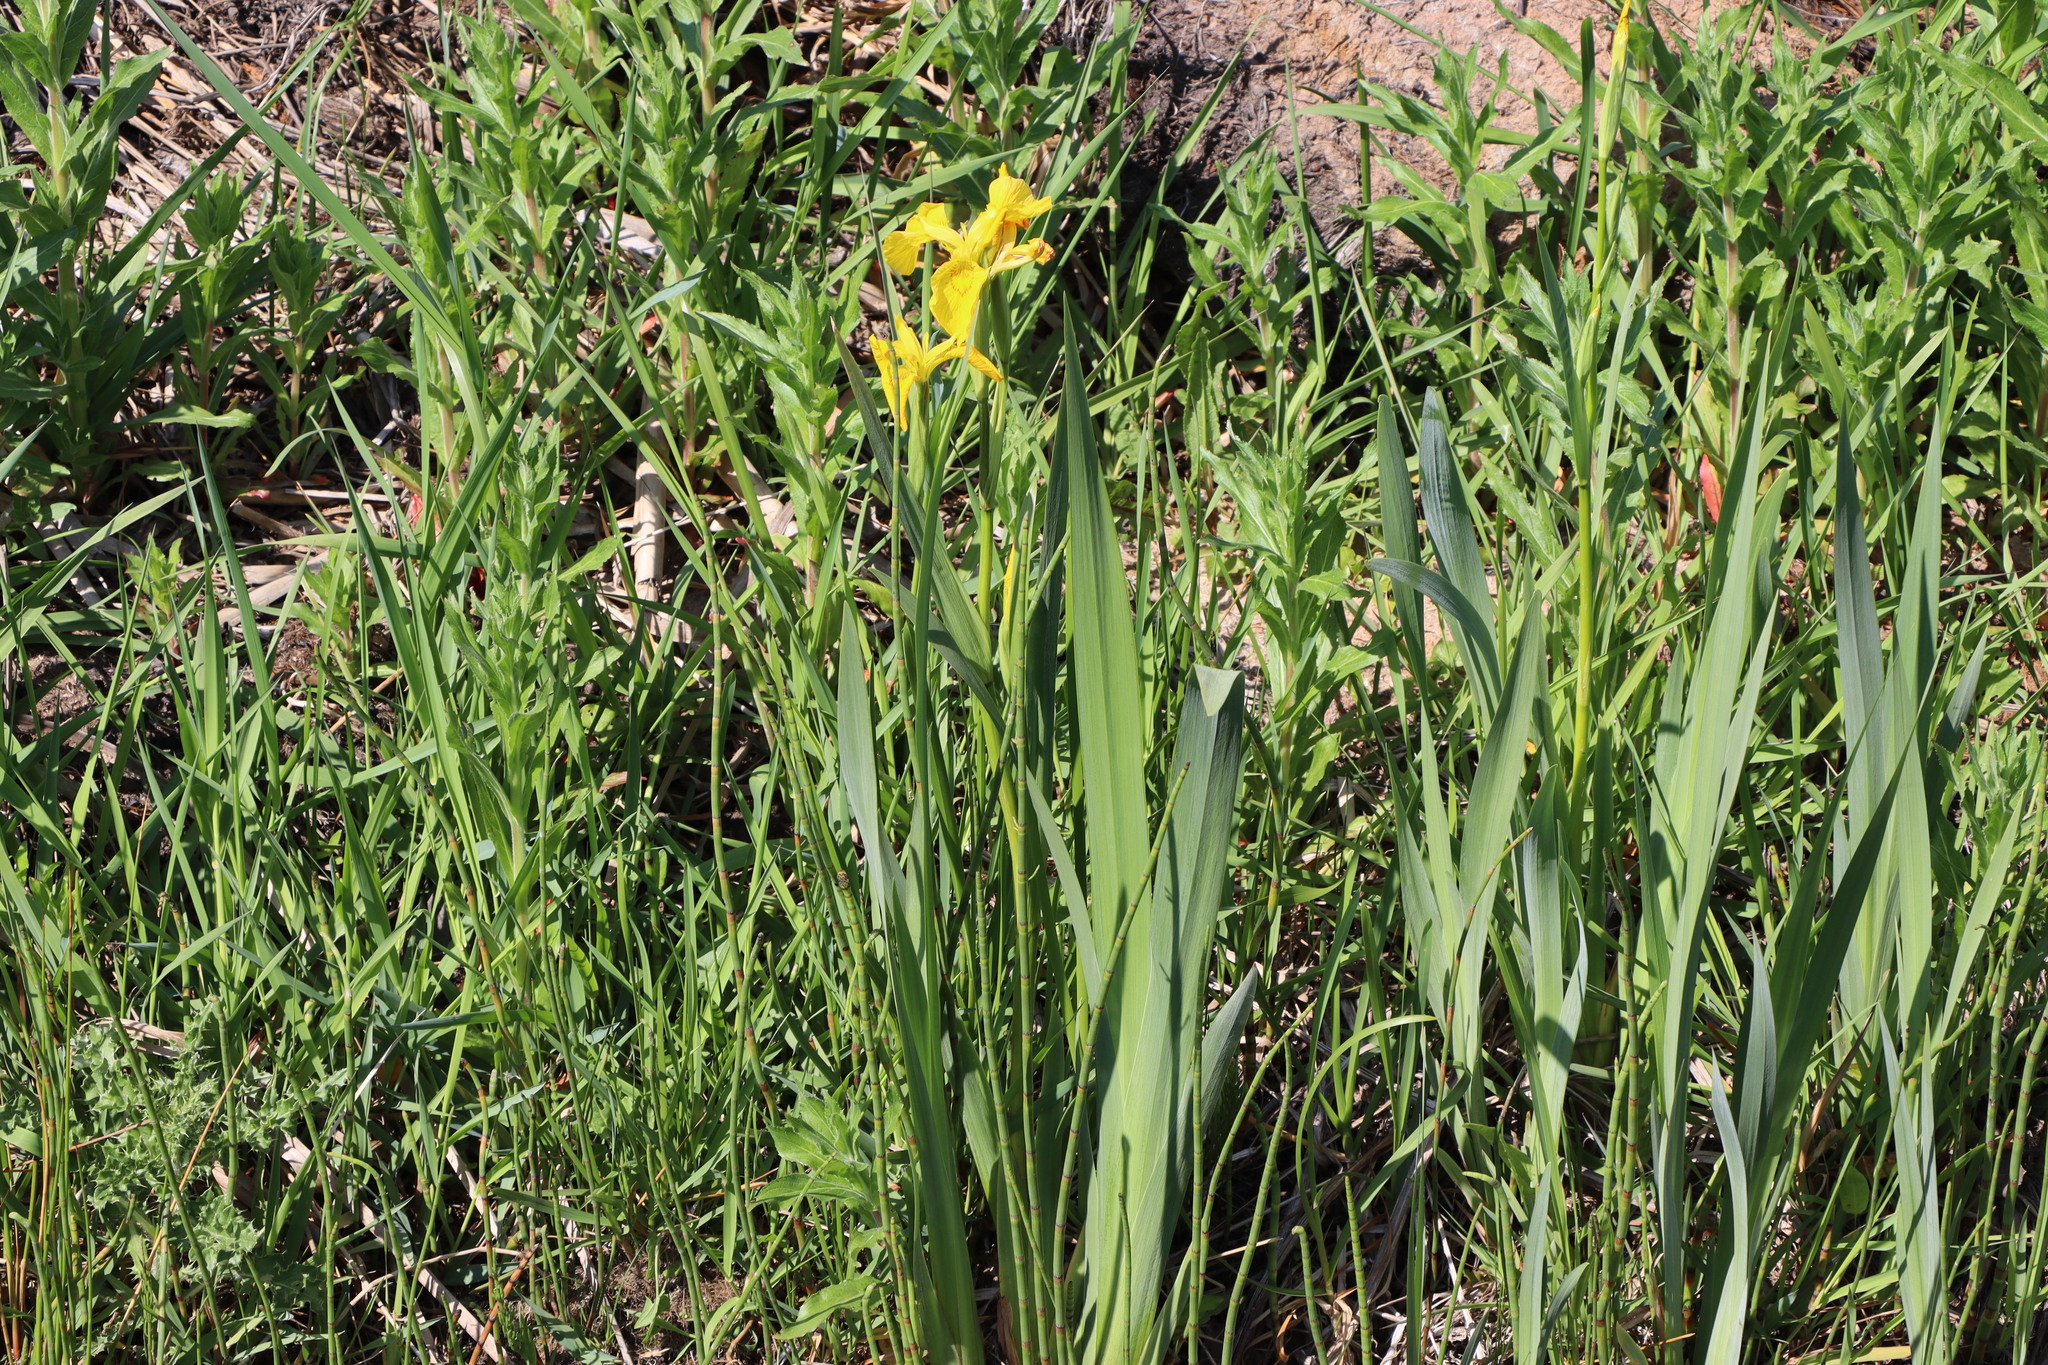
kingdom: Plantae
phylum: Tracheophyta
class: Liliopsida
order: Asparagales
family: Iridaceae
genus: Iris
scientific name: Iris pseudacorus
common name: Yellow flag
